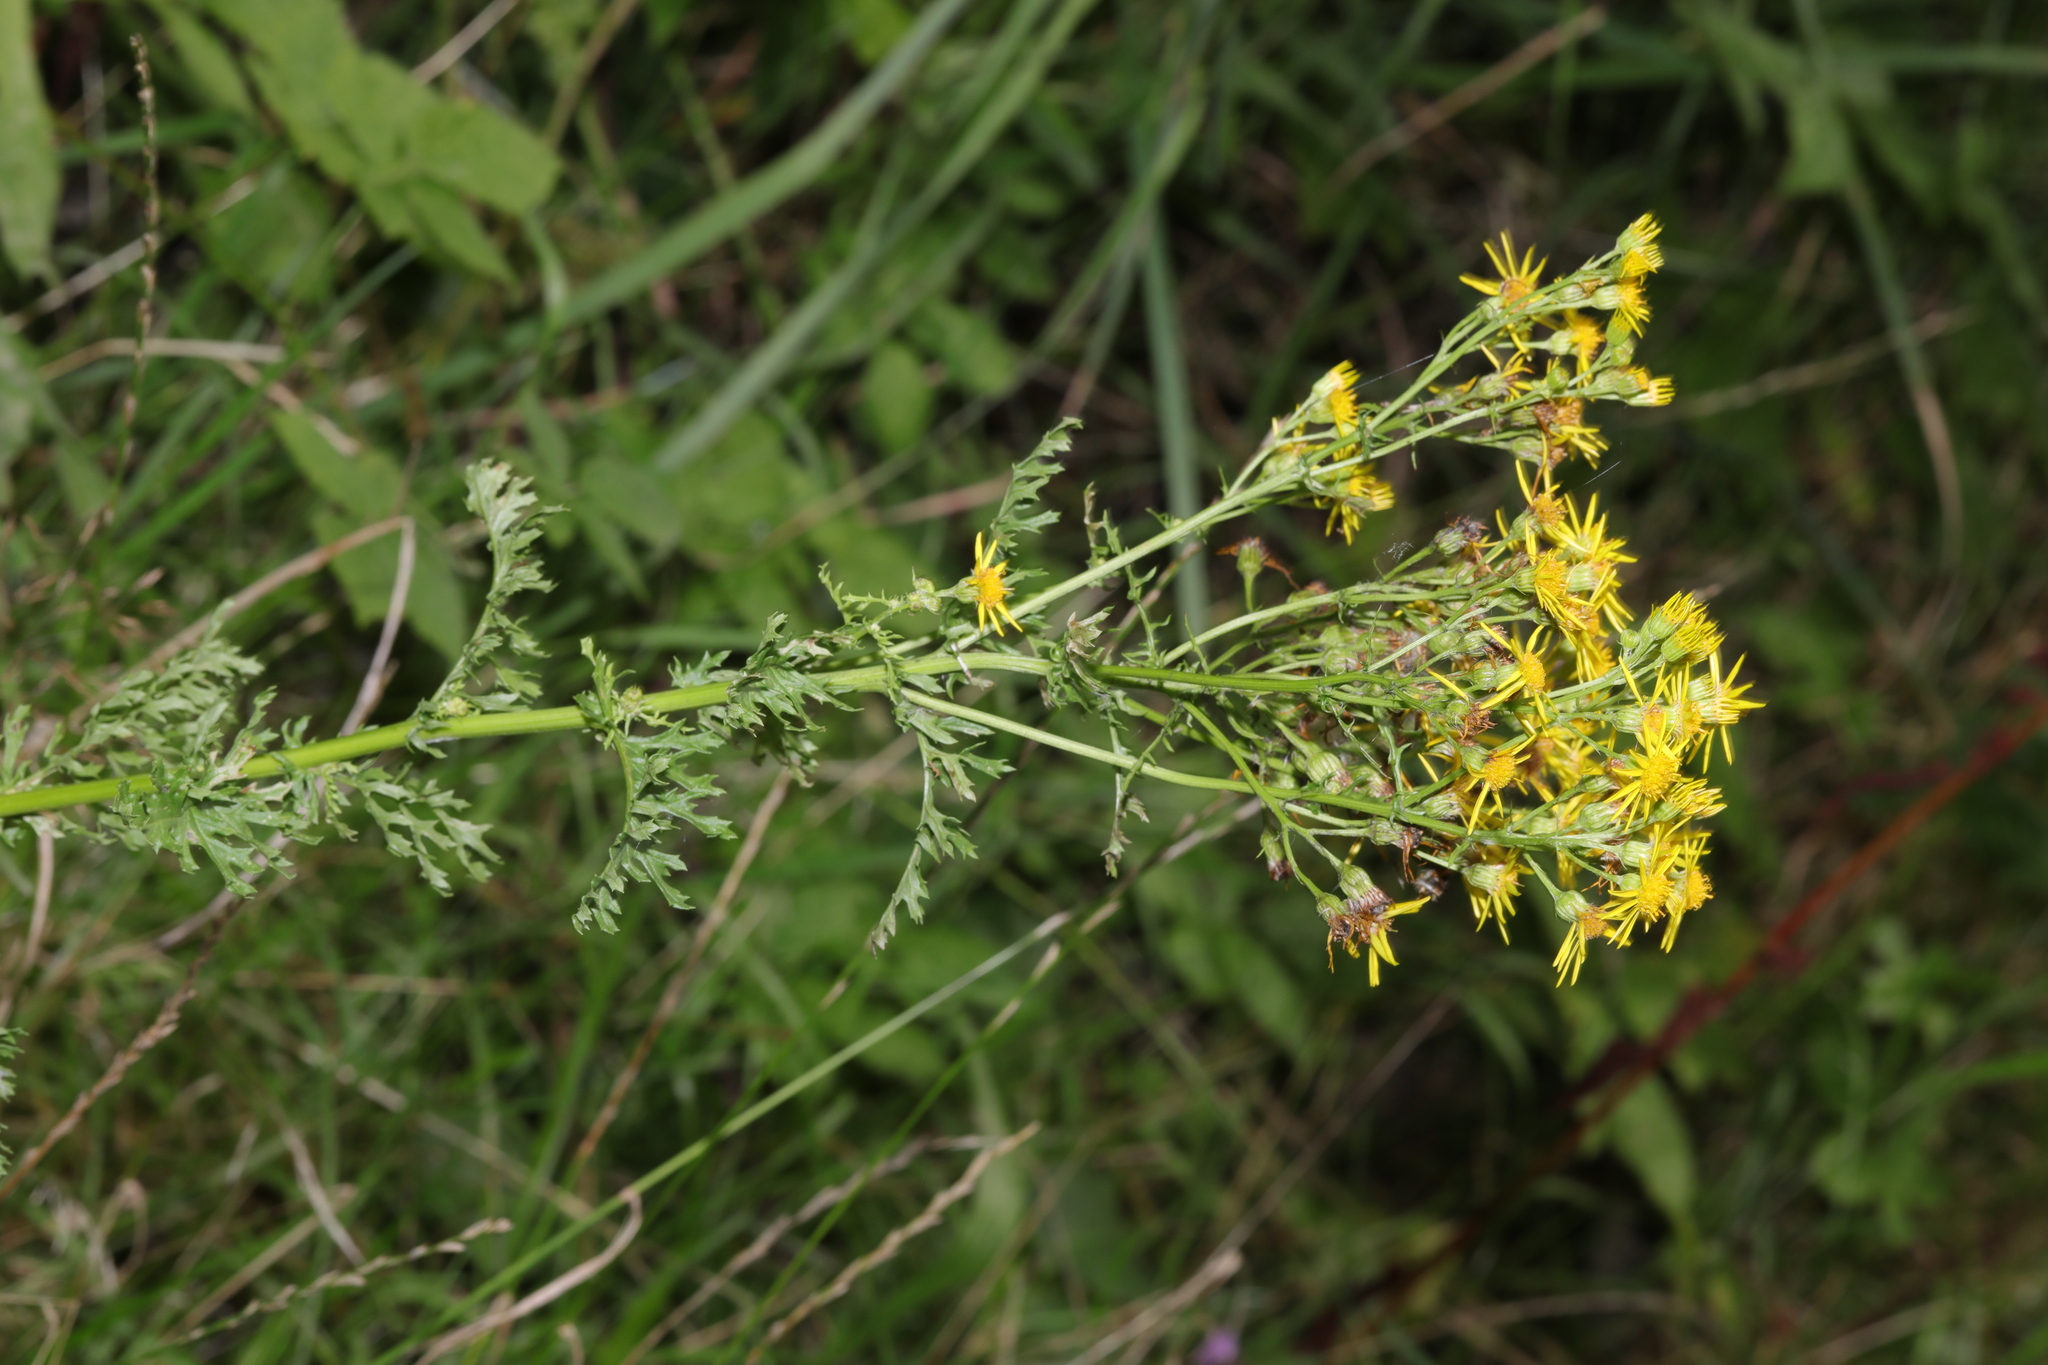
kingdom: Plantae
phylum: Tracheophyta
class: Magnoliopsida
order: Asterales
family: Asteraceae
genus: Jacobaea
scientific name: Jacobaea vulgaris
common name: Stinking willie
